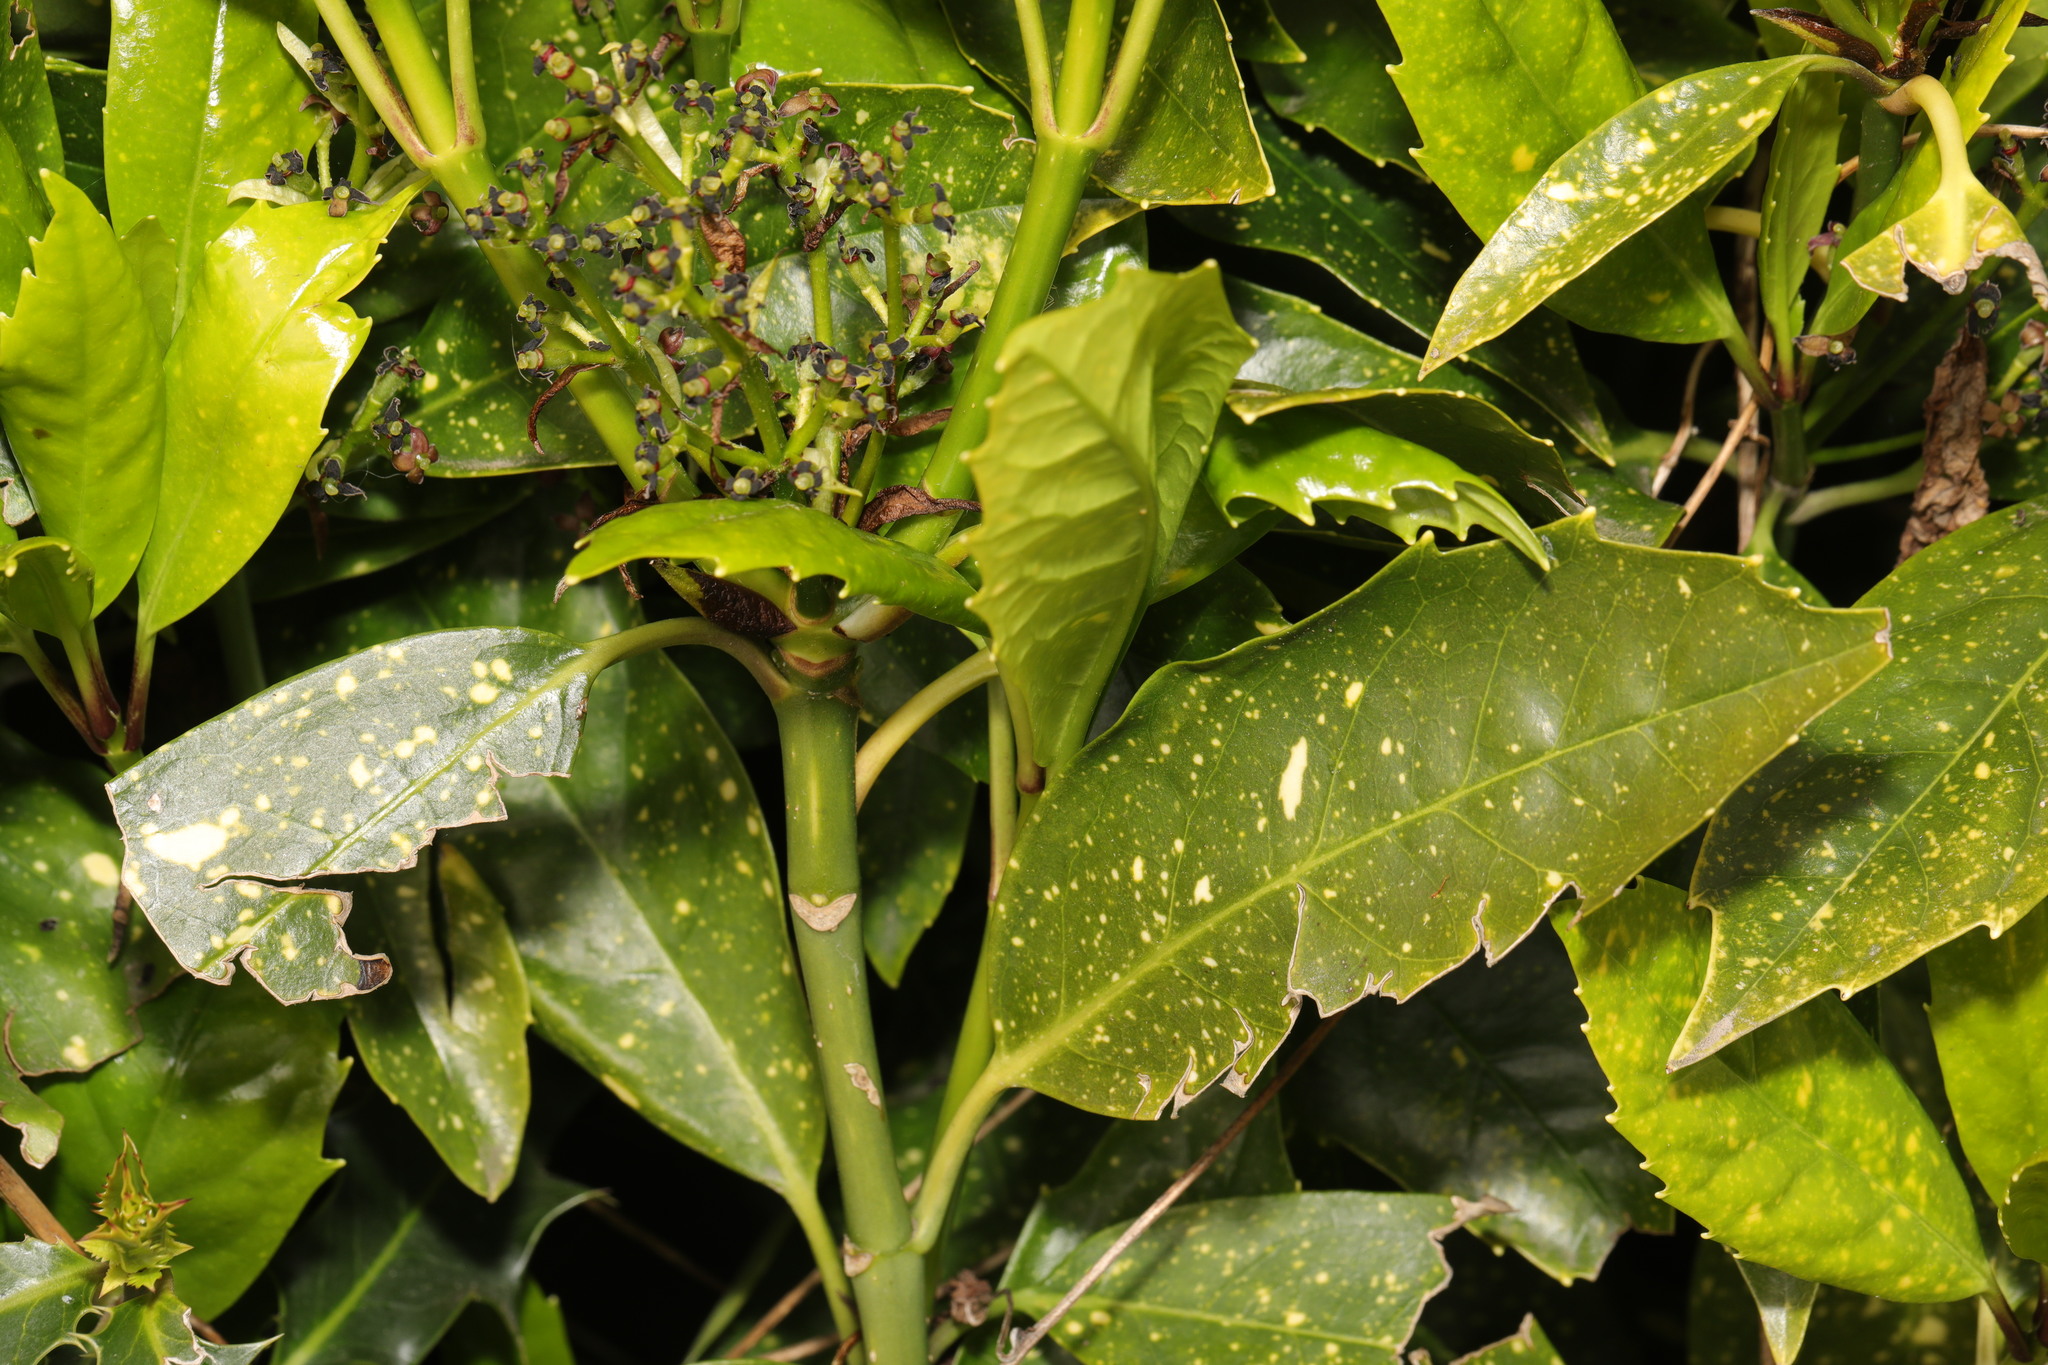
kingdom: Plantae
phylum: Tracheophyta
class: Magnoliopsida
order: Garryales
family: Garryaceae
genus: Aucuba
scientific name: Aucuba japonica
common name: Spotted-laurel
